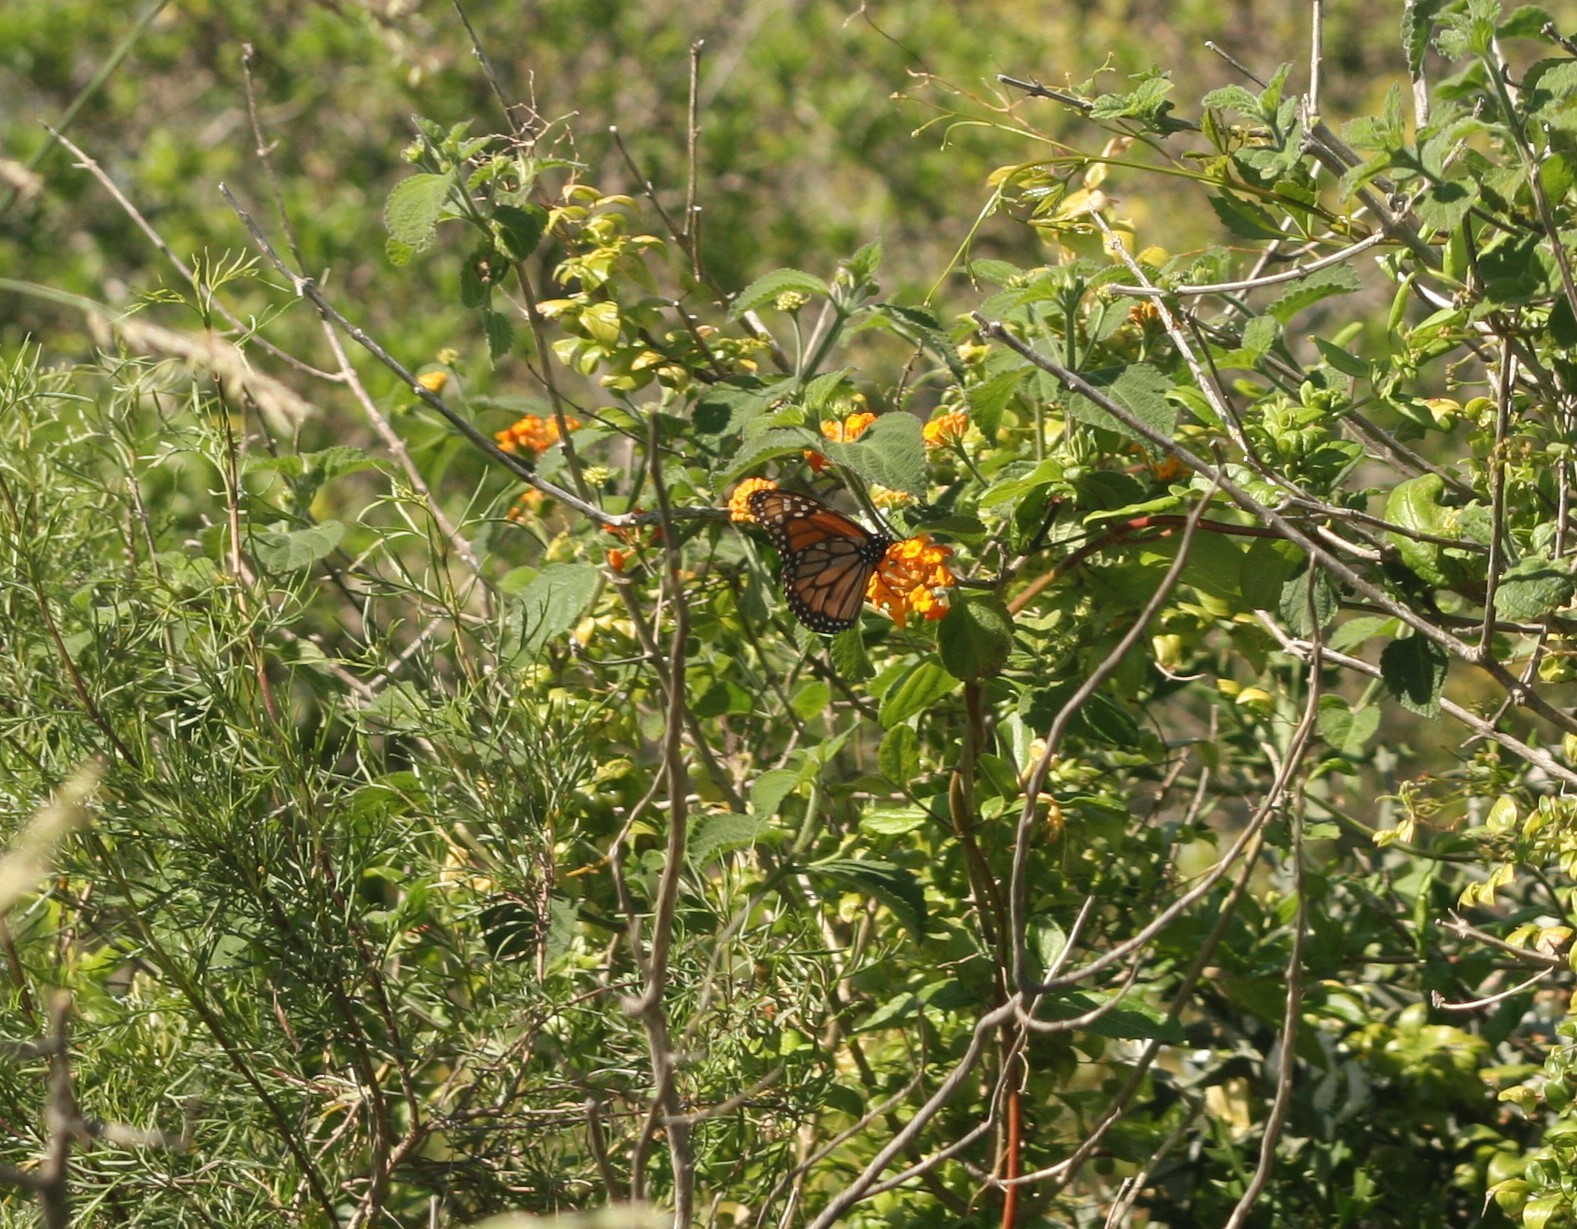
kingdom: Animalia
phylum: Arthropoda
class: Insecta
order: Lepidoptera
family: Nymphalidae
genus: Danaus
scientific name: Danaus erippus
